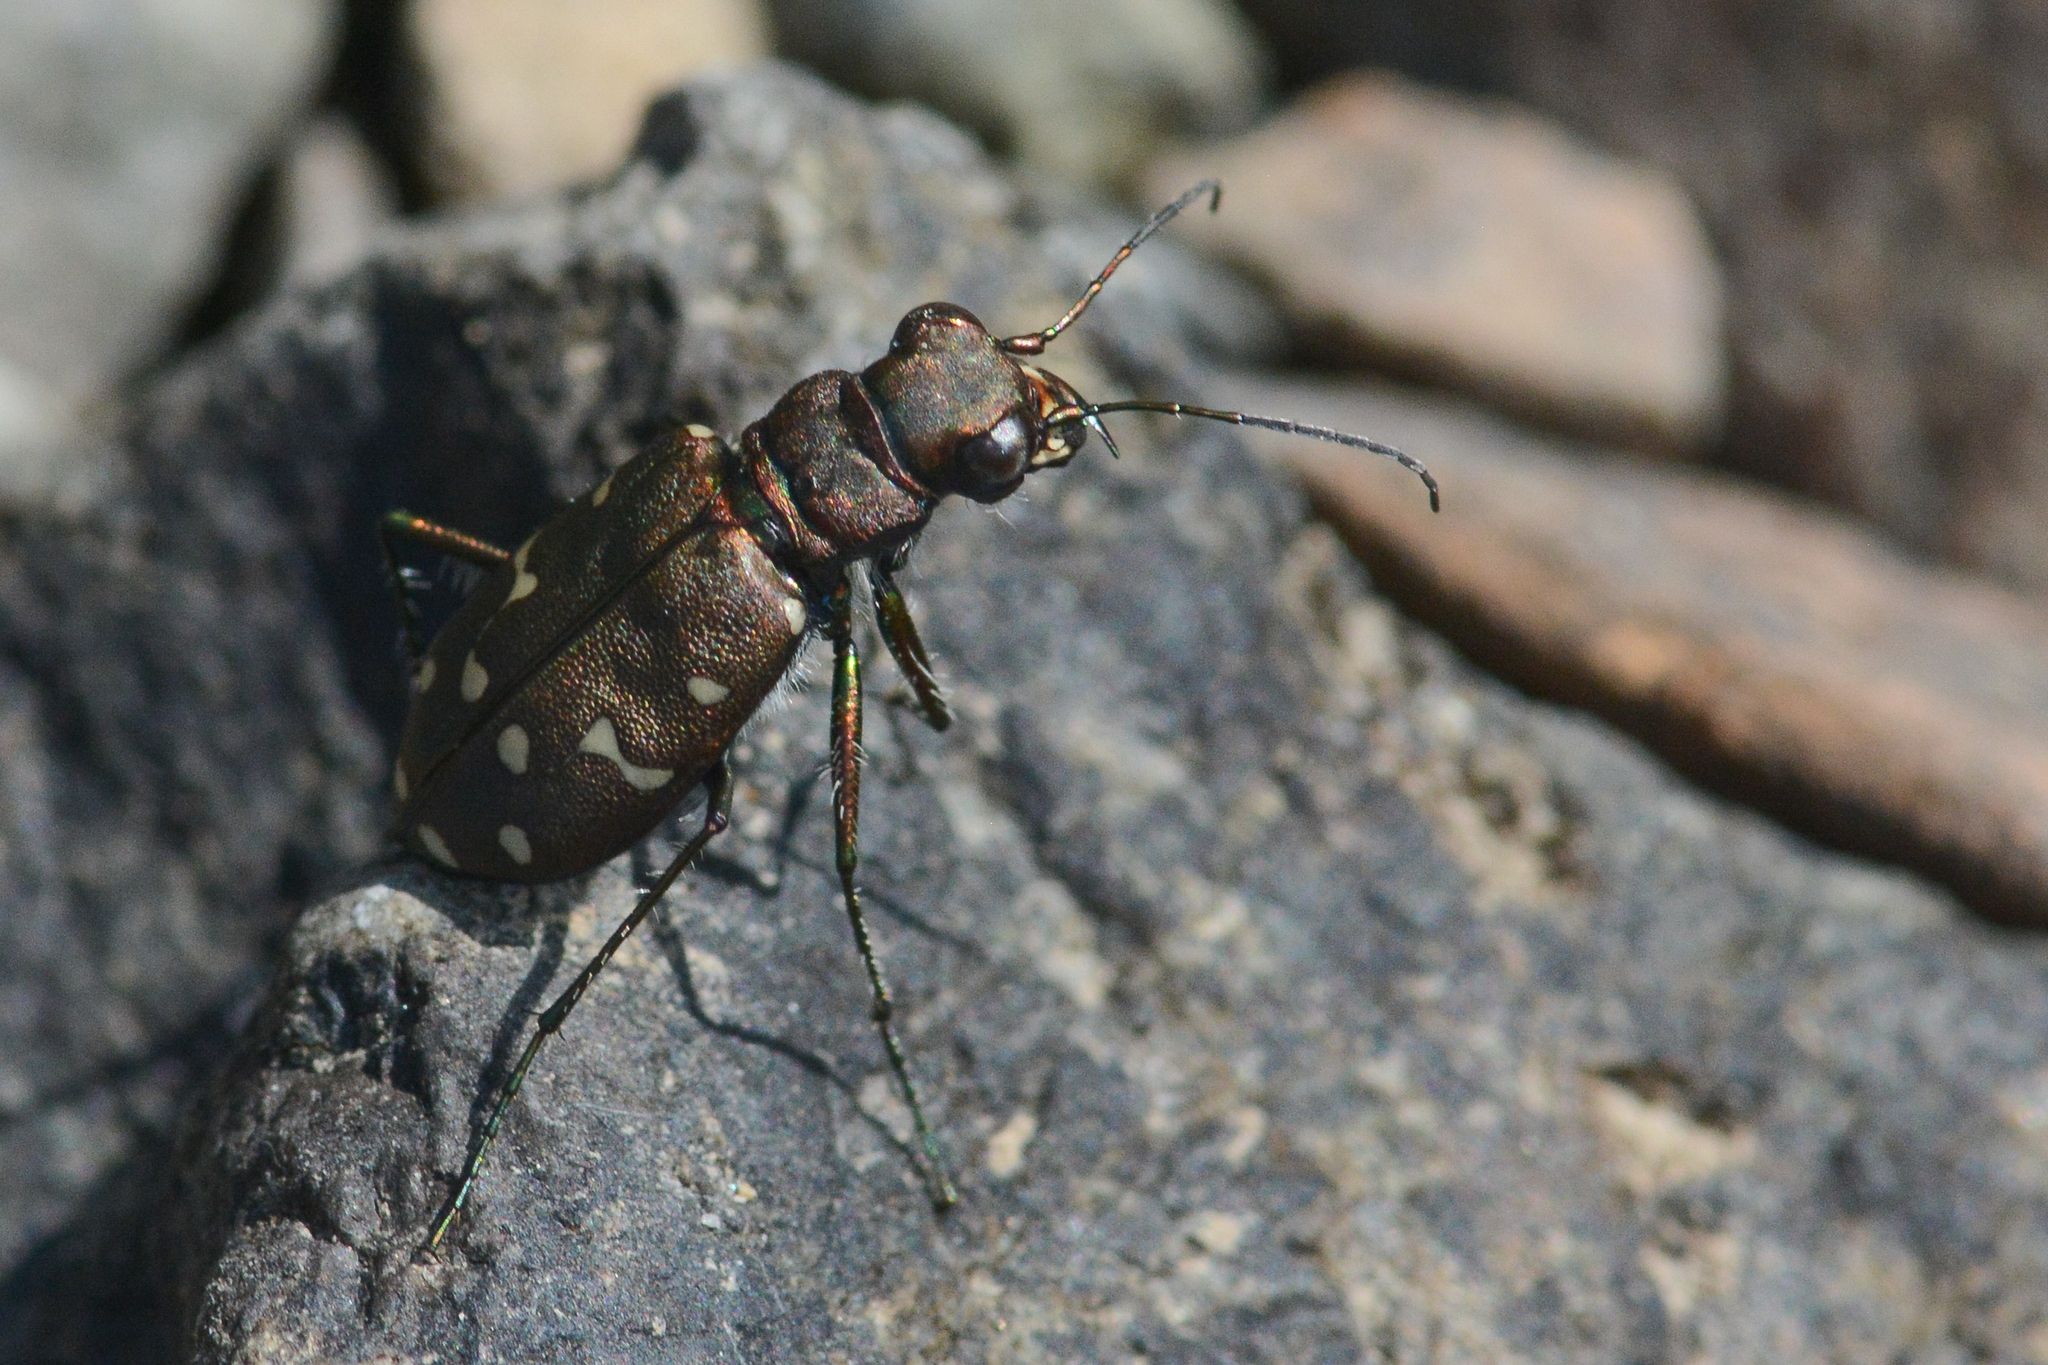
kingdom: Animalia
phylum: Arthropoda
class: Insecta
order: Coleoptera
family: Carabidae
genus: Cicindela
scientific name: Cicindela oregona
